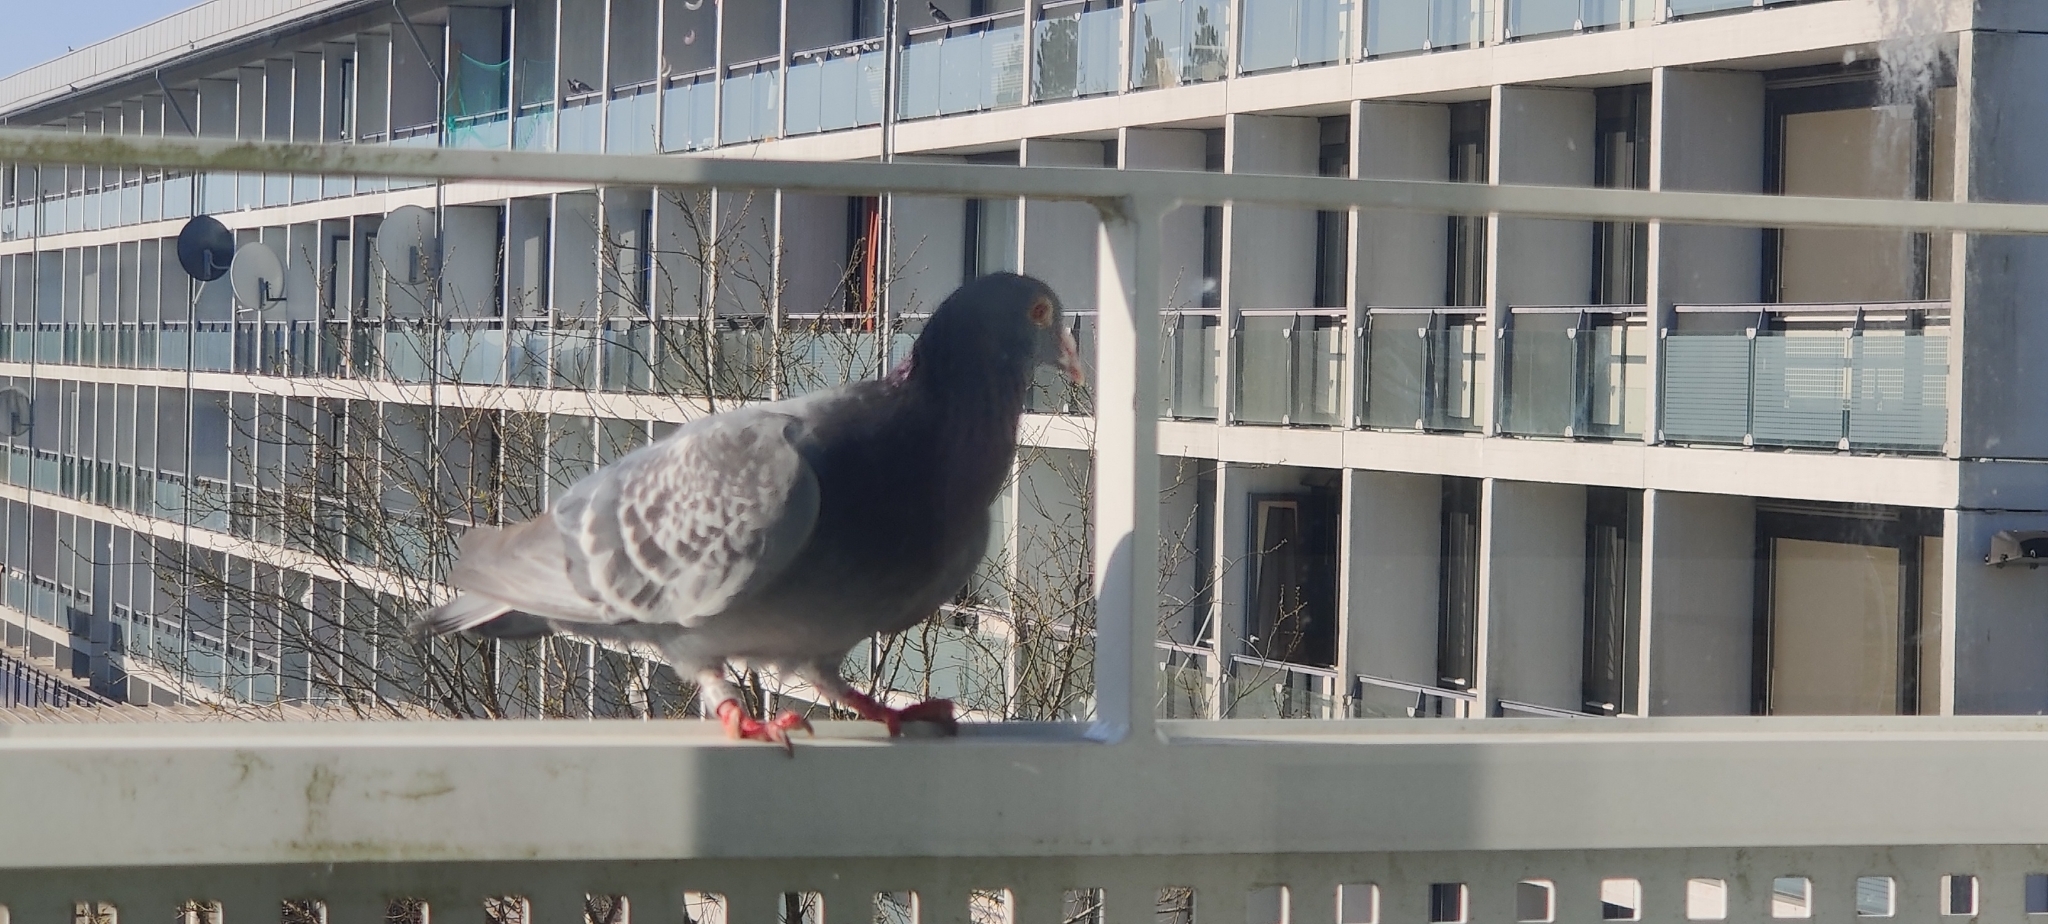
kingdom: Animalia
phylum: Chordata
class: Aves
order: Columbiformes
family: Columbidae
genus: Columba
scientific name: Columba livia
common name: Rock pigeon
